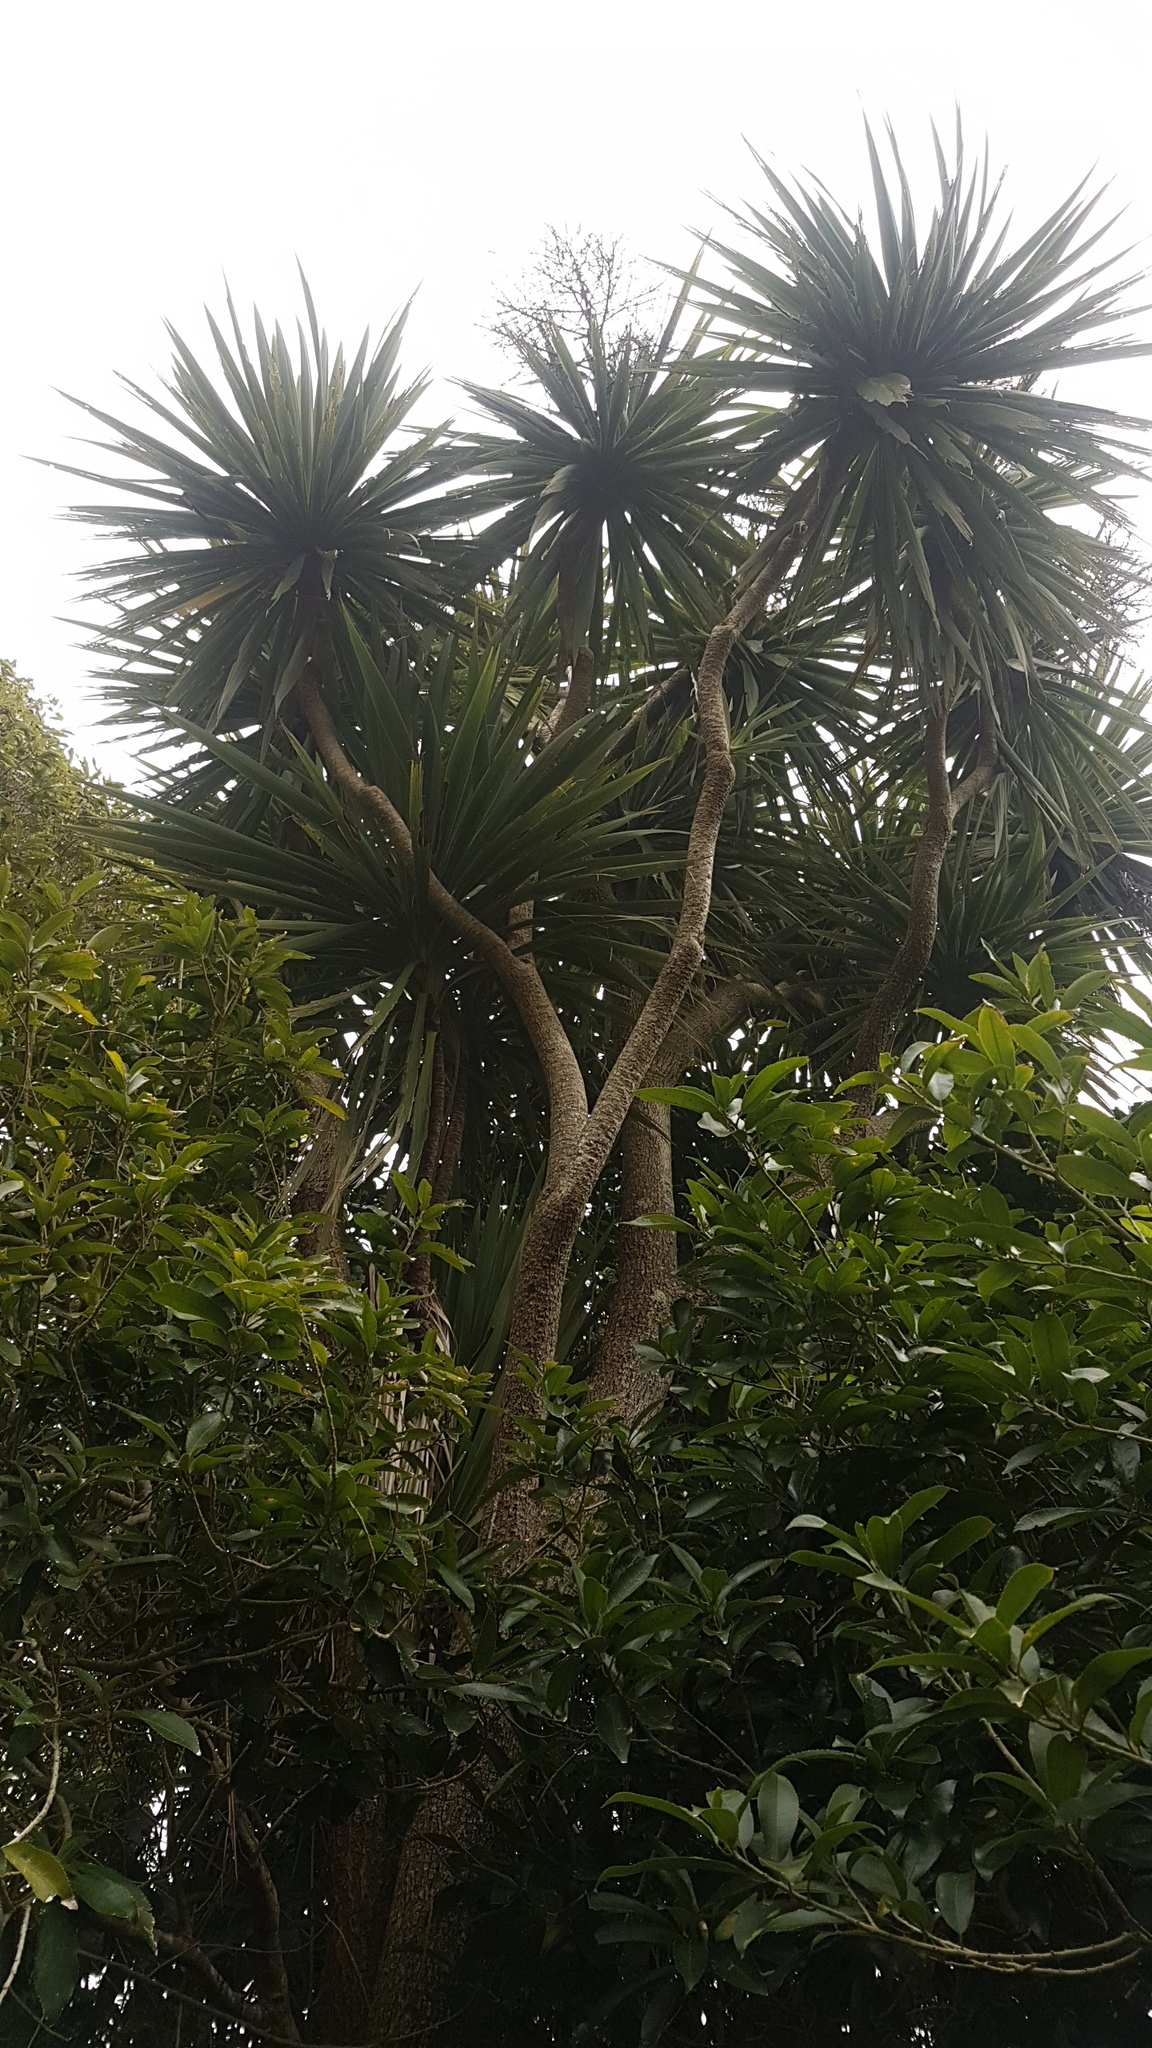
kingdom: Plantae
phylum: Tracheophyta
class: Liliopsida
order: Asparagales
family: Asparagaceae
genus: Cordyline
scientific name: Cordyline australis
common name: Cabbage-palm
